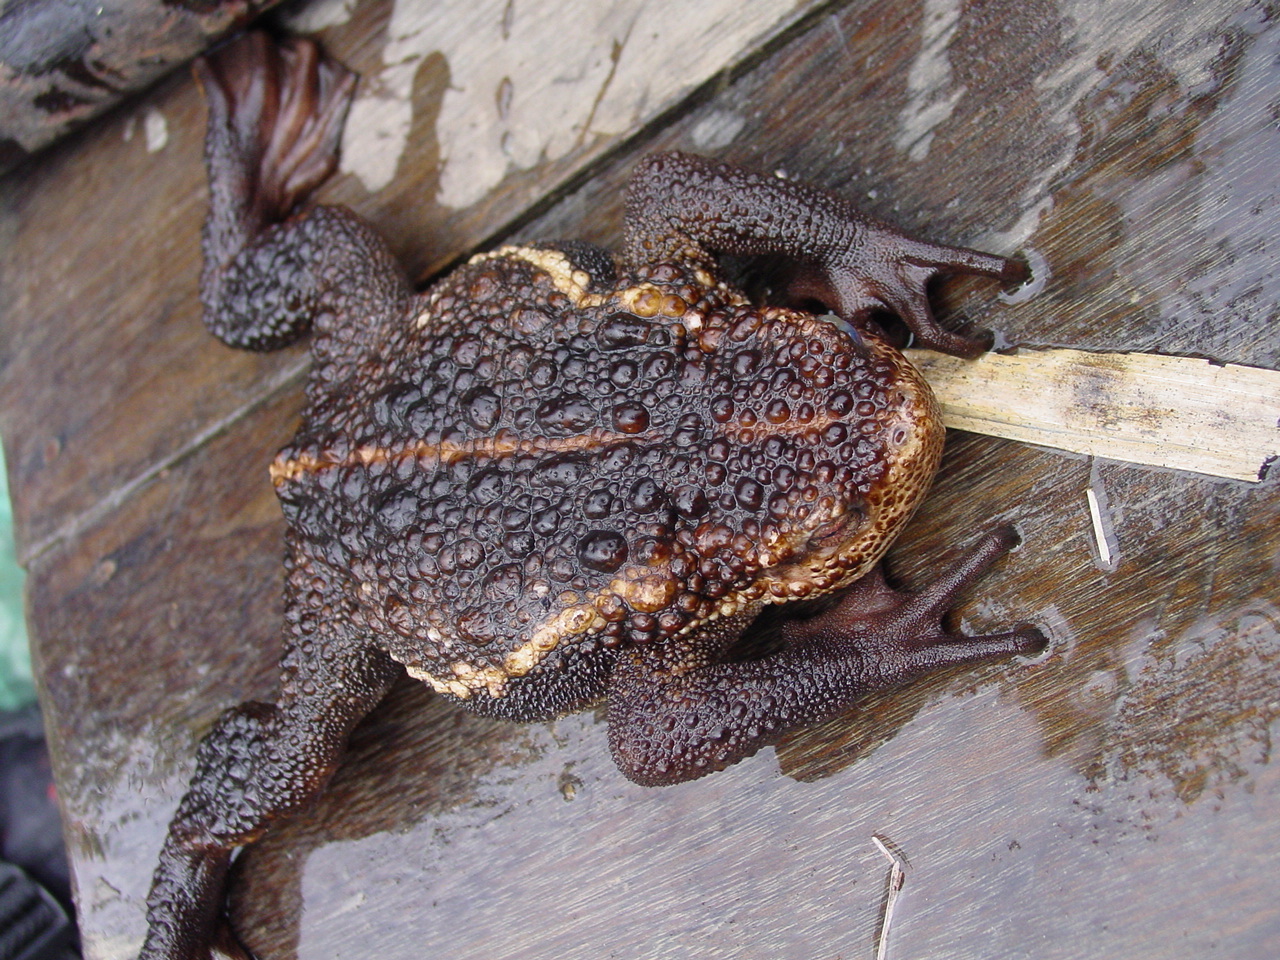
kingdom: Animalia
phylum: Chordata
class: Amphibia
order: Anura
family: Bufonidae
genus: Pseudobufo
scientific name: Pseudobufo subasper
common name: Peat swamp toad
